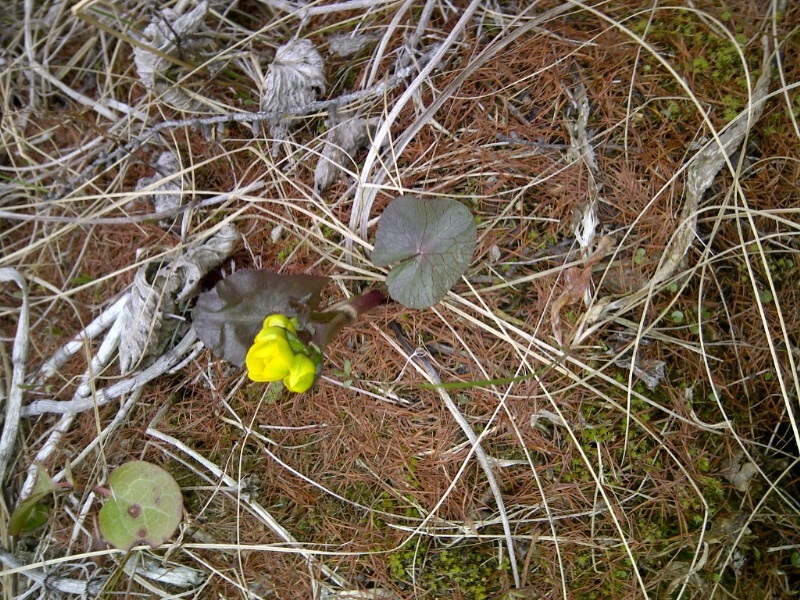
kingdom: Plantae
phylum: Tracheophyta
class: Magnoliopsida
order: Ranunculales
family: Ranunculaceae
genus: Caltha
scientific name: Caltha palustris
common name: Marsh marigold
